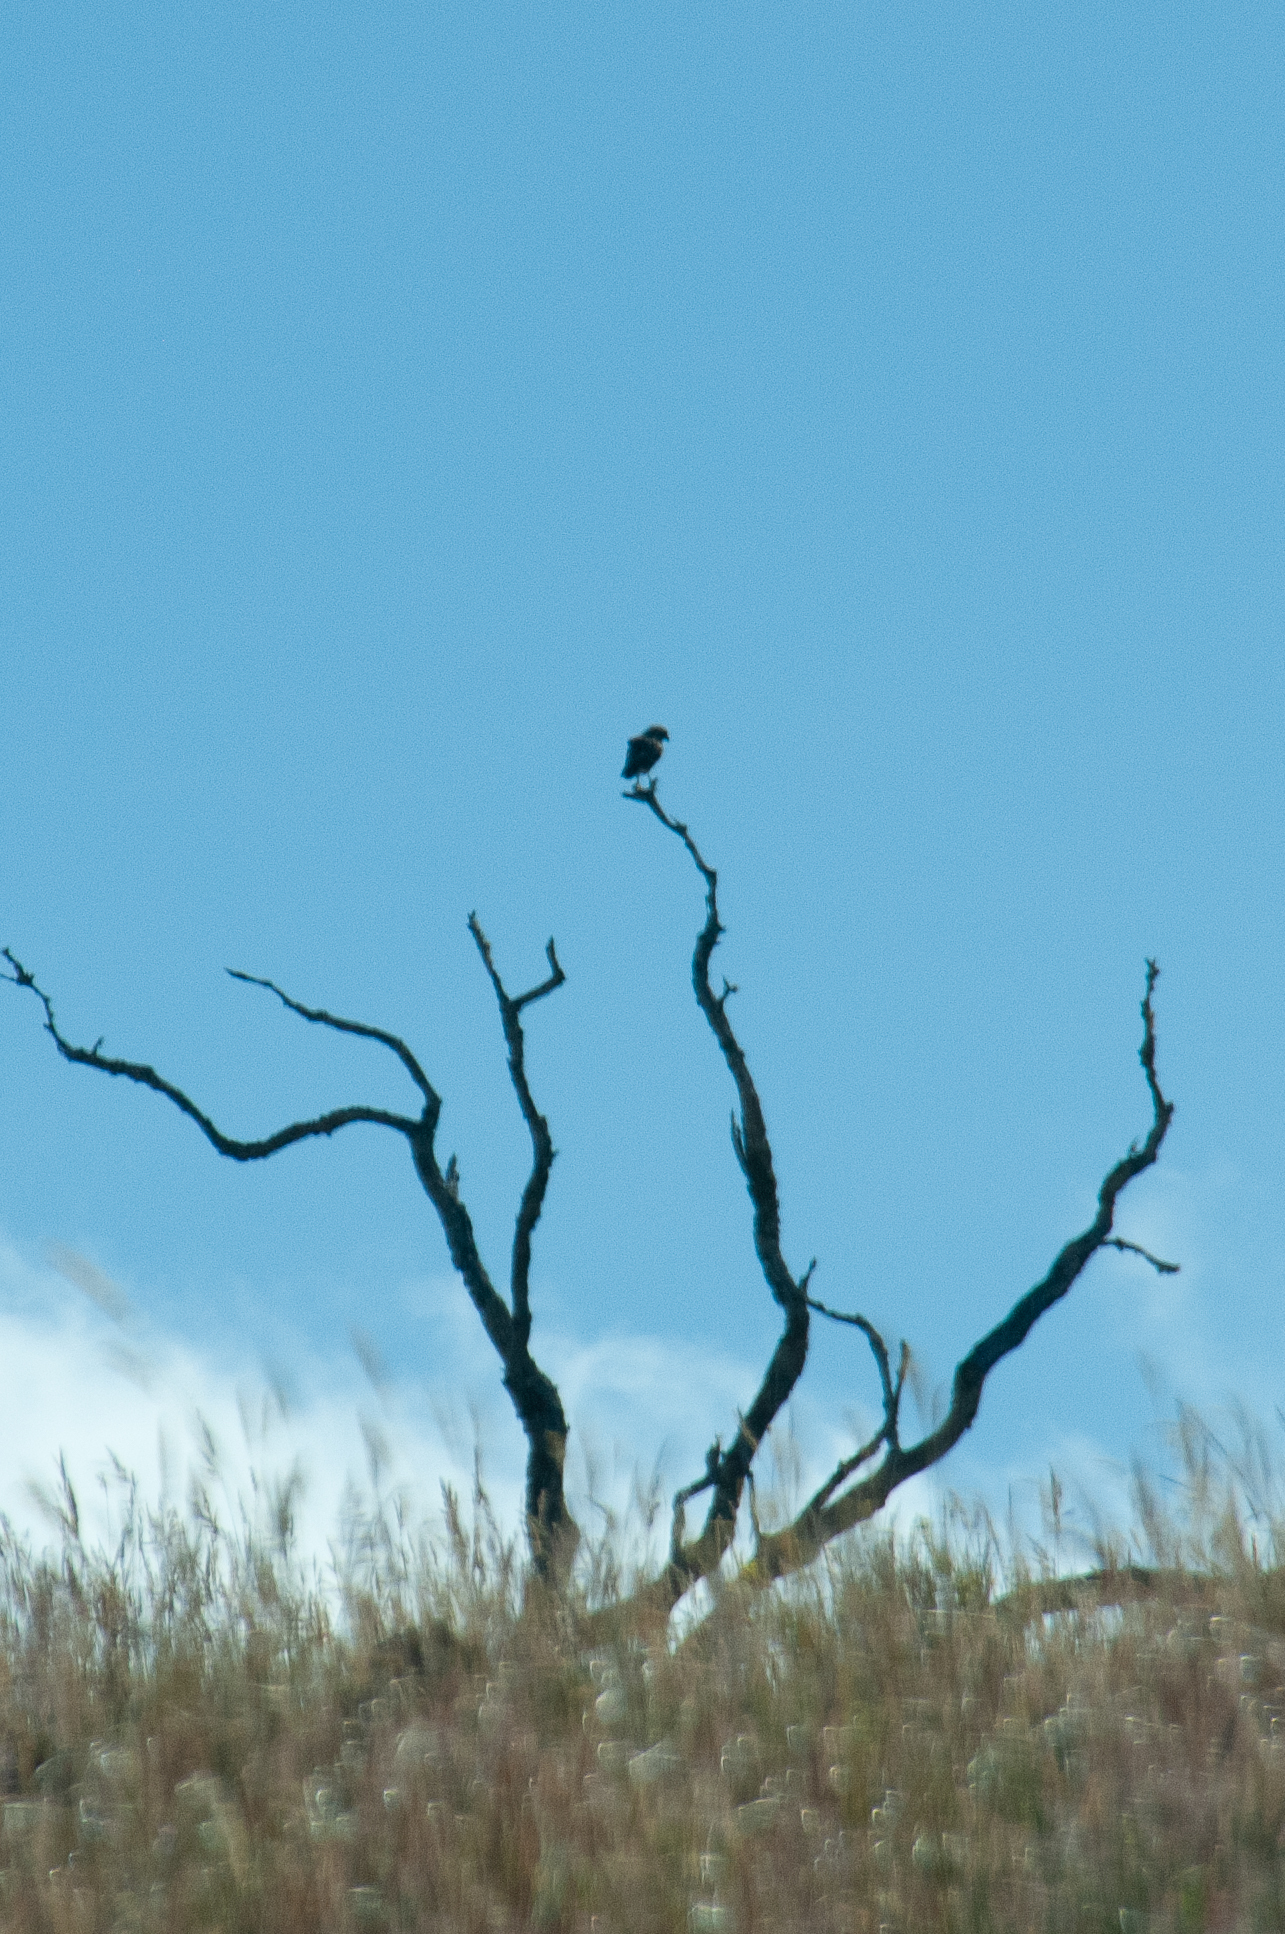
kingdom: Animalia
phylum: Chordata
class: Aves
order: Accipitriformes
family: Accipitridae
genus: Buteo
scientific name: Buteo solitarius
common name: Hawaiian hawk
